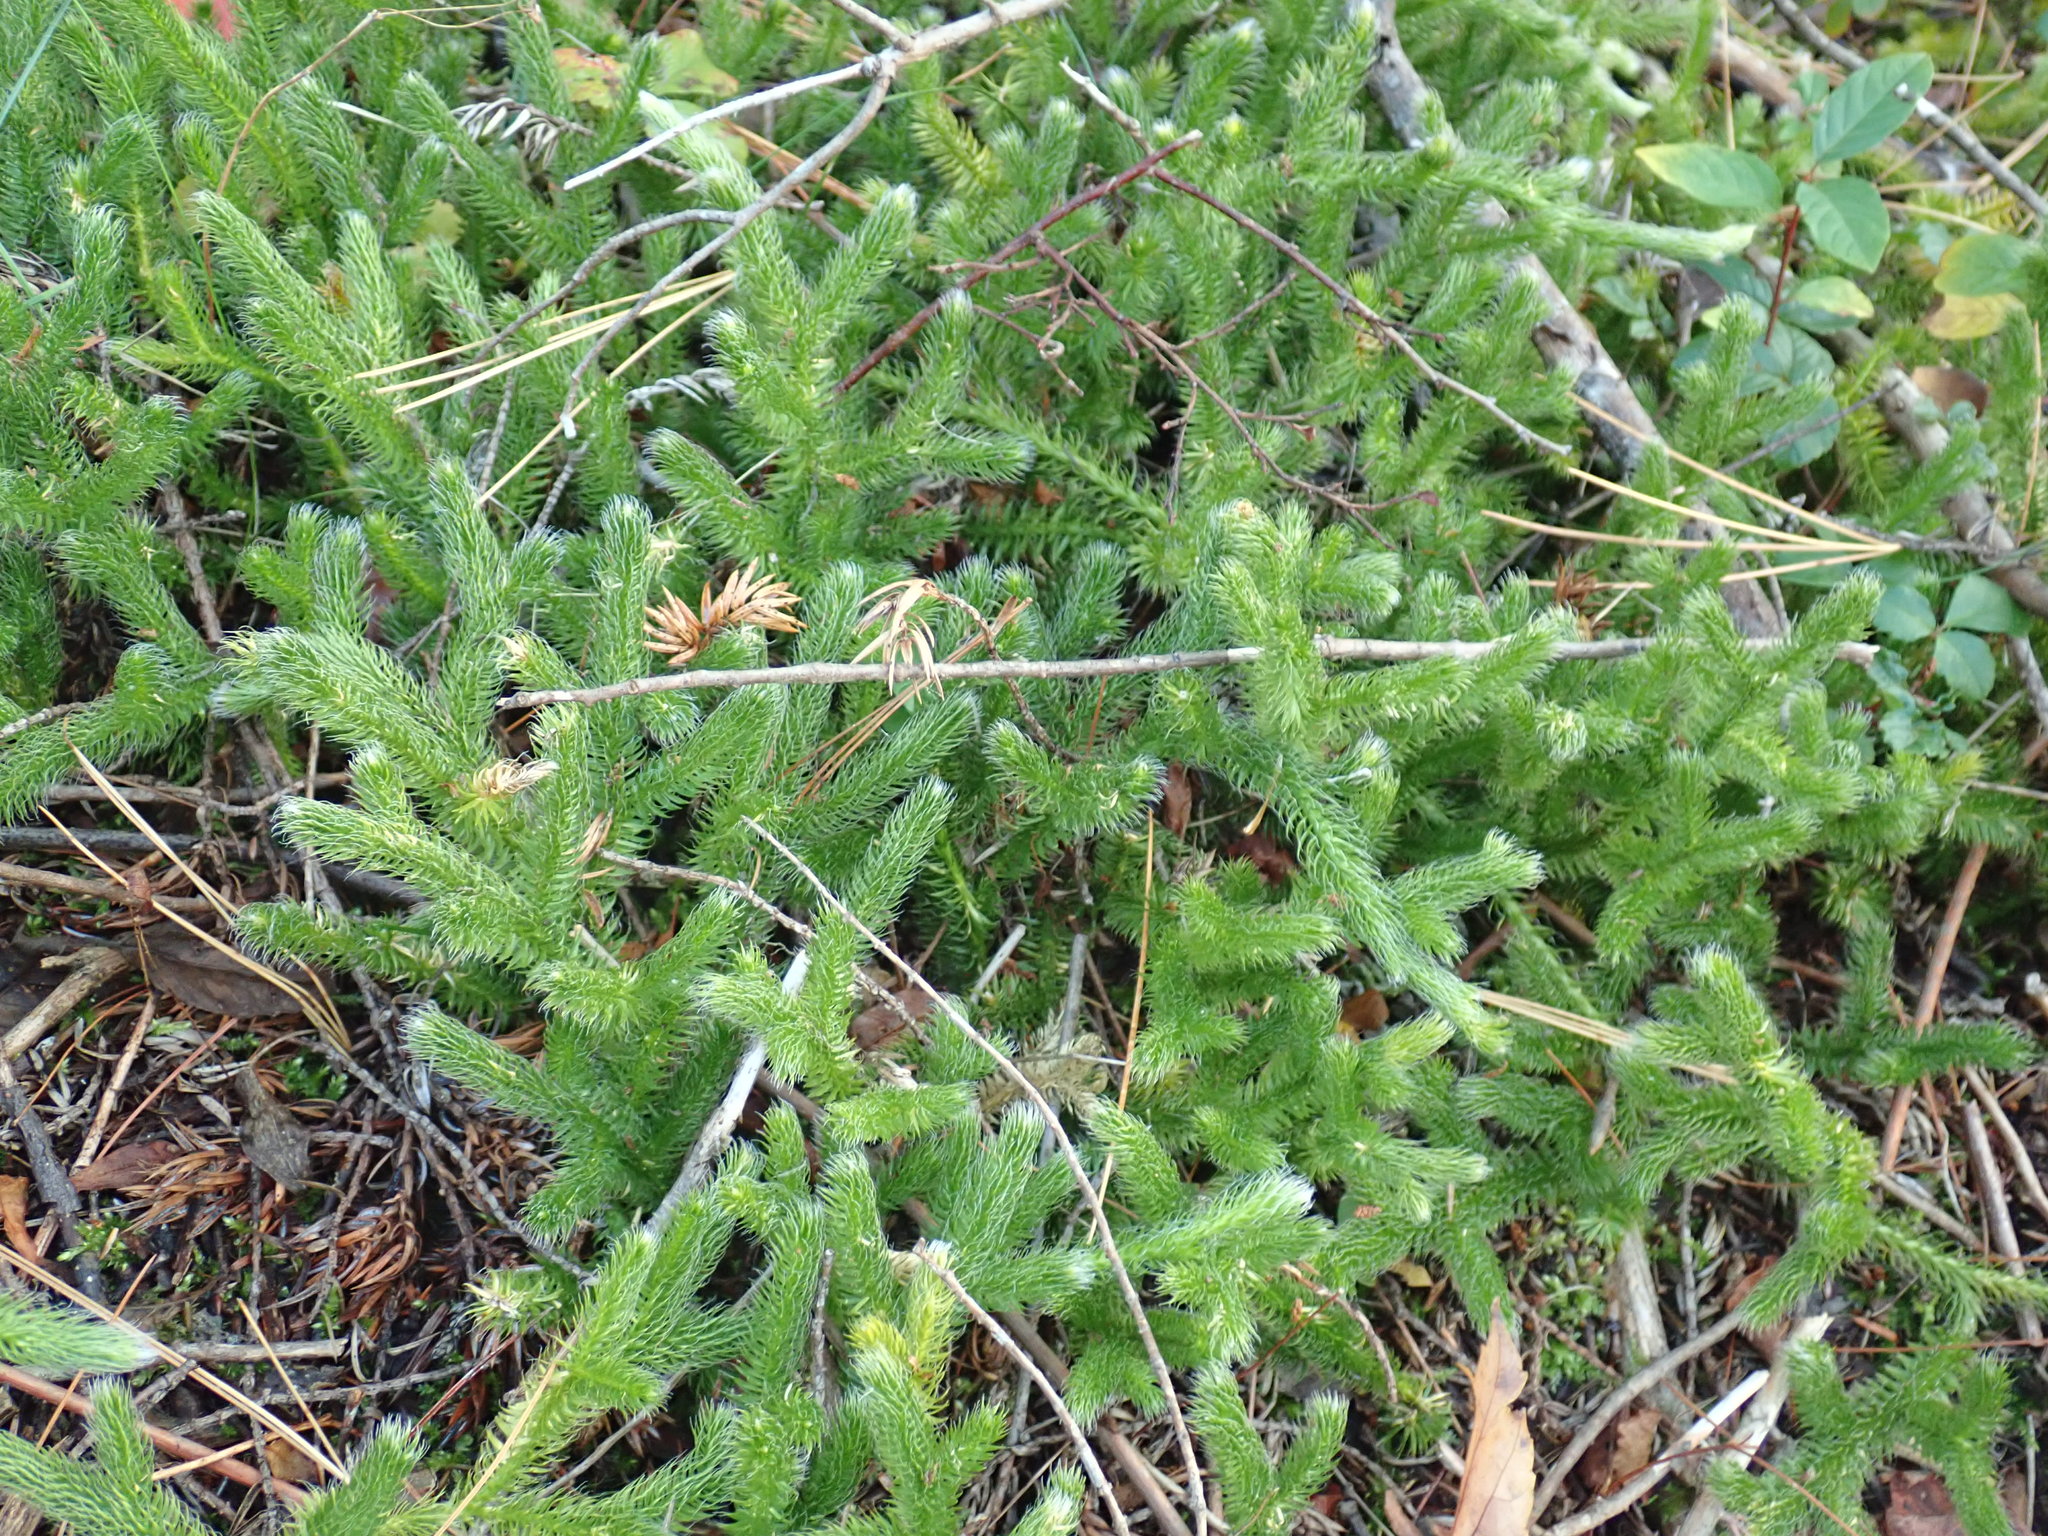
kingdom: Plantae
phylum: Tracheophyta
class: Lycopodiopsida
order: Lycopodiales
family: Lycopodiaceae
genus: Lycopodium
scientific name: Lycopodium clavatum
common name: Stag's-horn clubmoss
